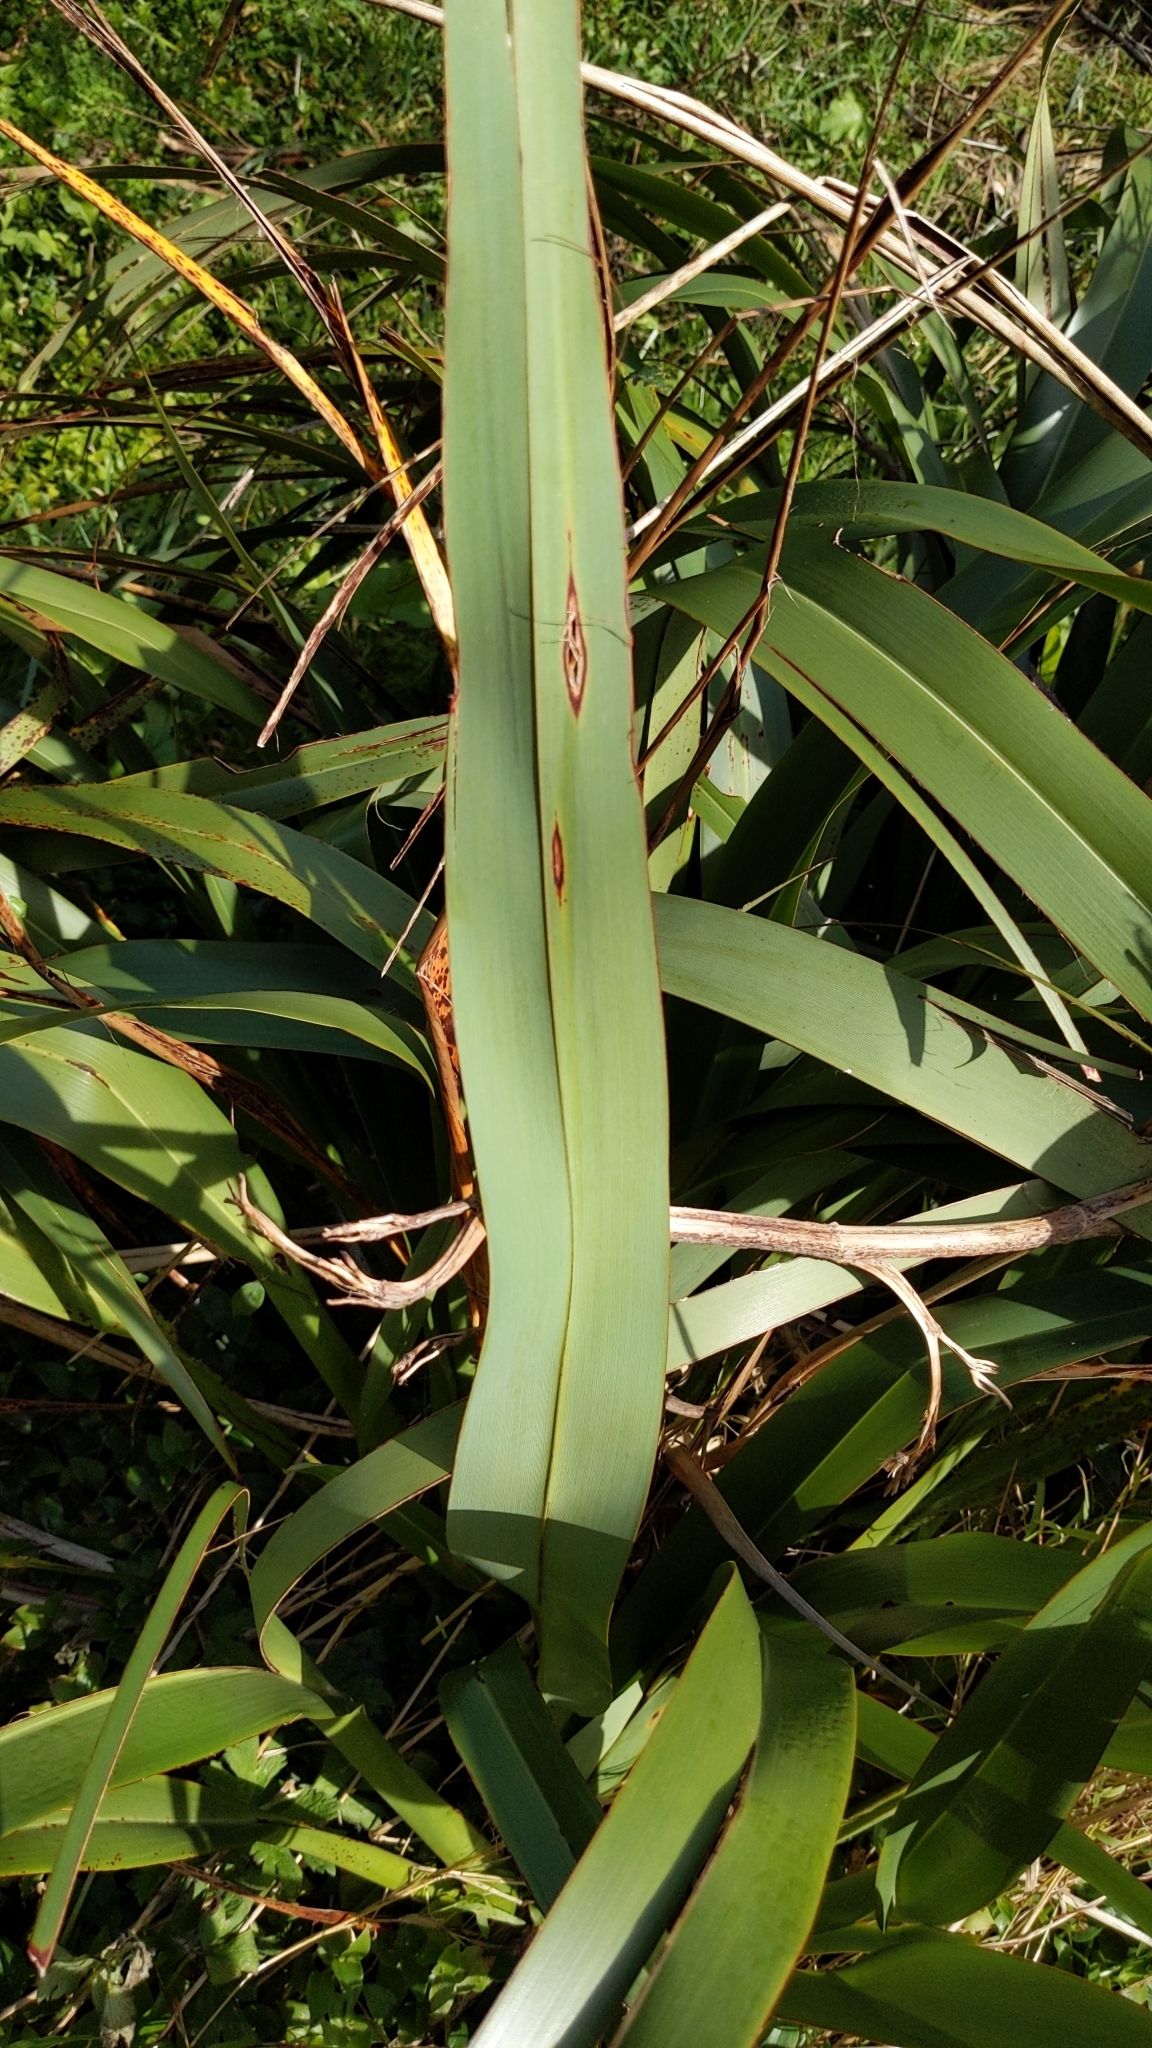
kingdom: Plantae
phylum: Tracheophyta
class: Liliopsida
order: Asparagales
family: Asphodelaceae
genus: Phormium
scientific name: Phormium tenax
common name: New zealand flax
